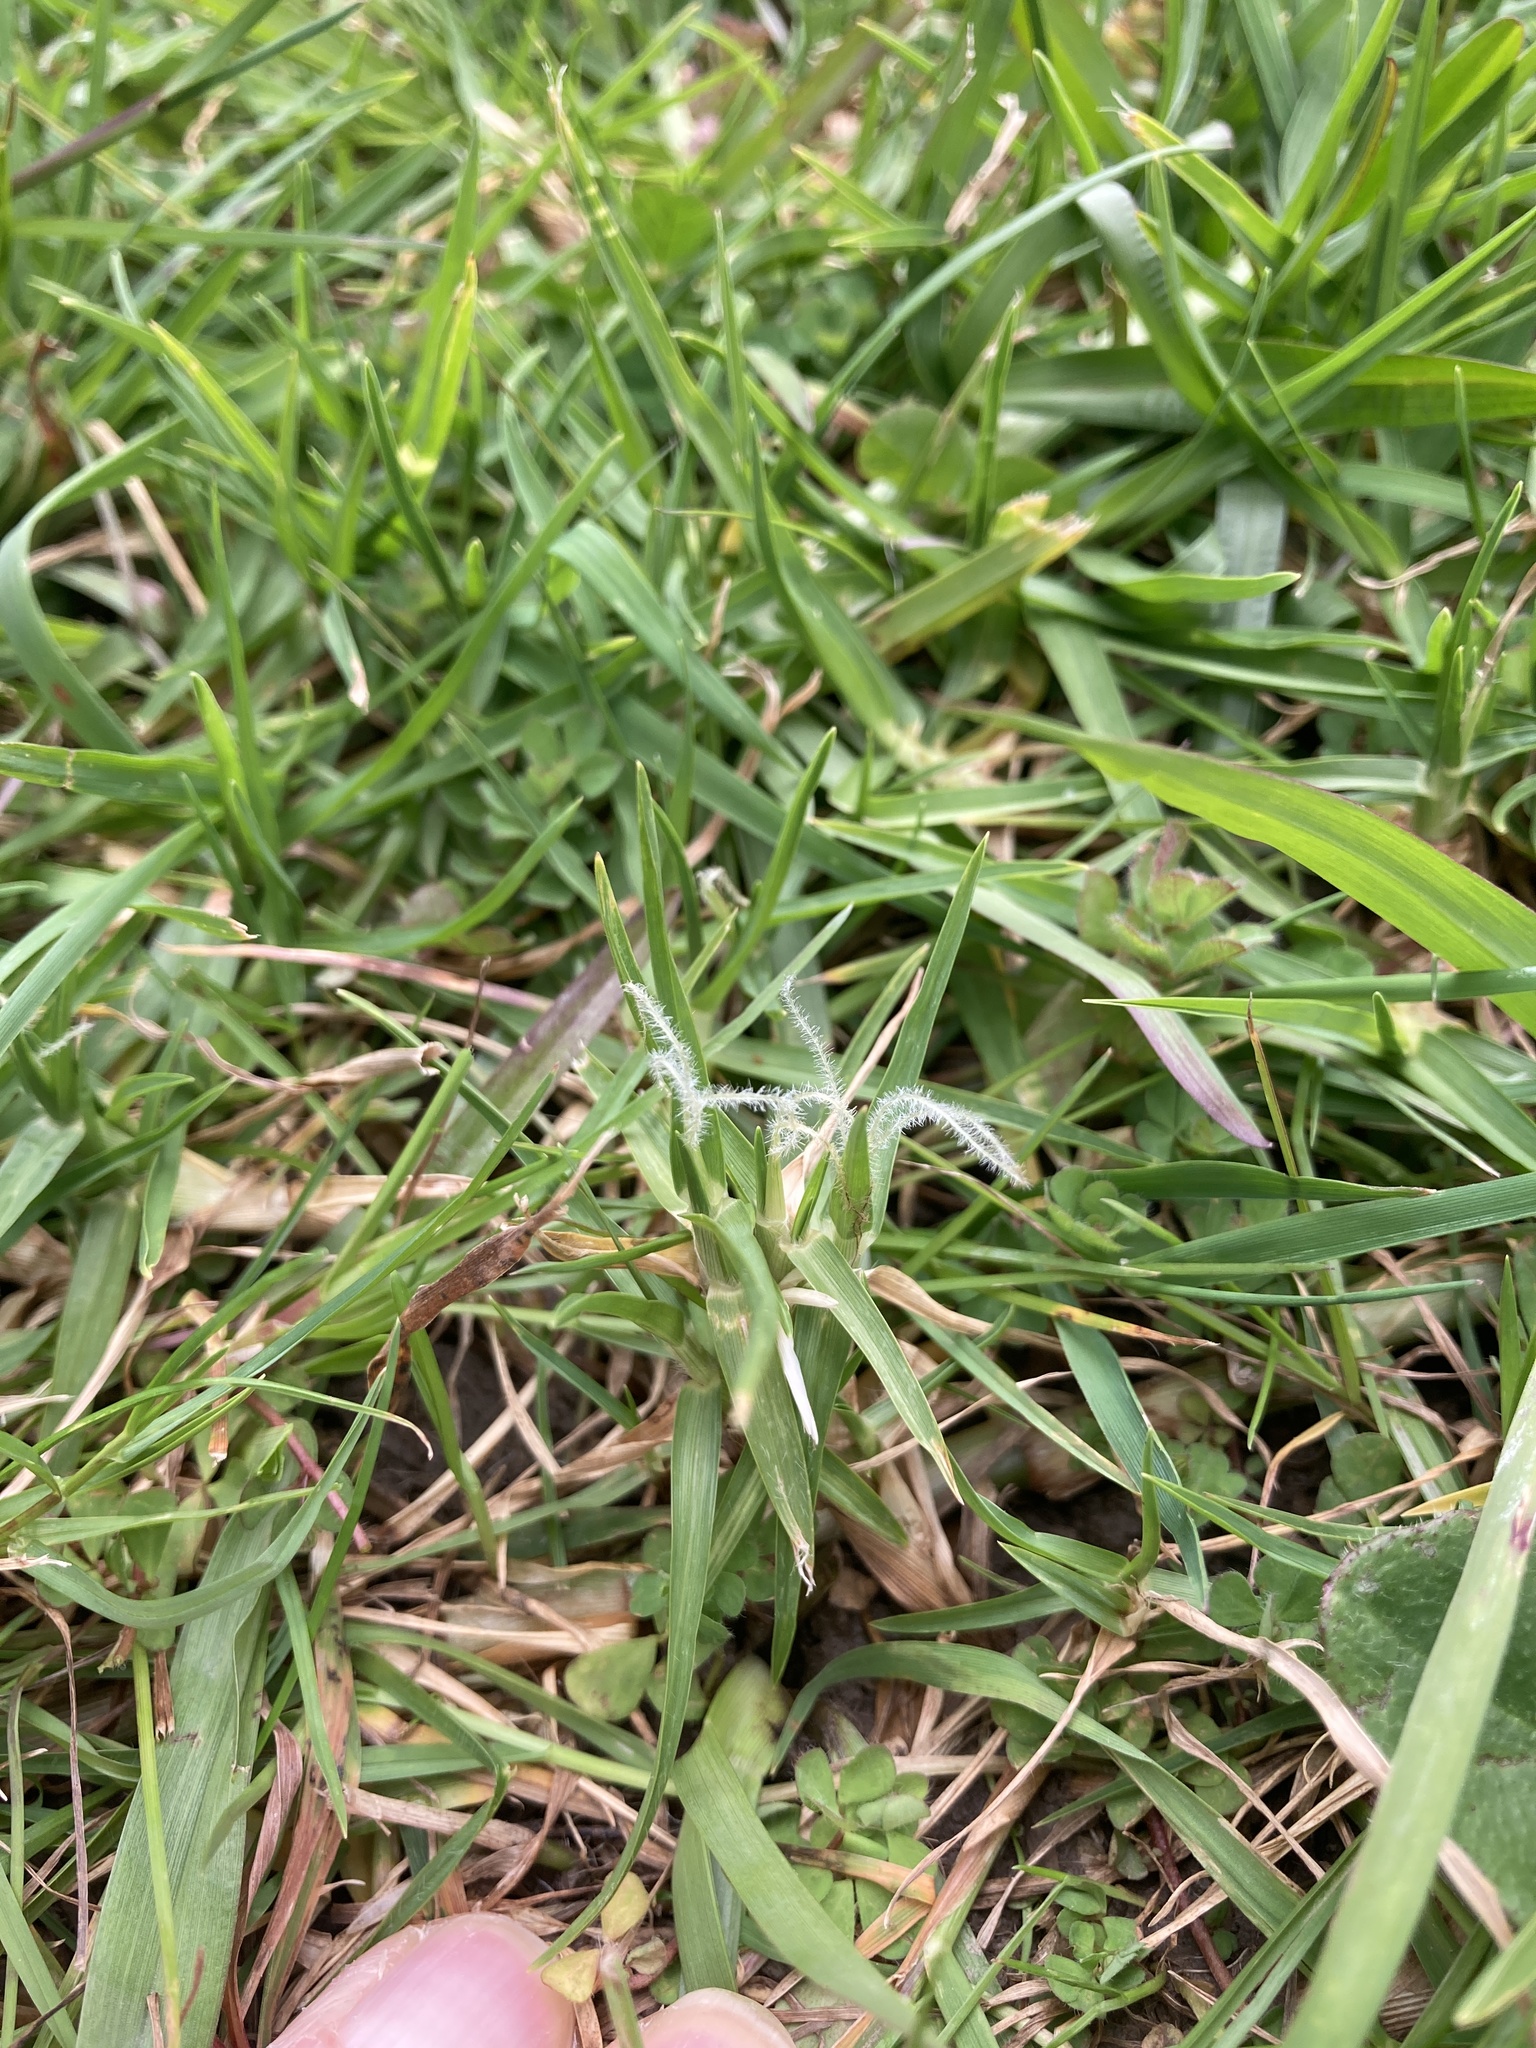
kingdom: Plantae
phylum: Tracheophyta
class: Liliopsida
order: Poales
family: Poaceae
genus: Cenchrus
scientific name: Cenchrus clandestinus
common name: Kikuyugrass
